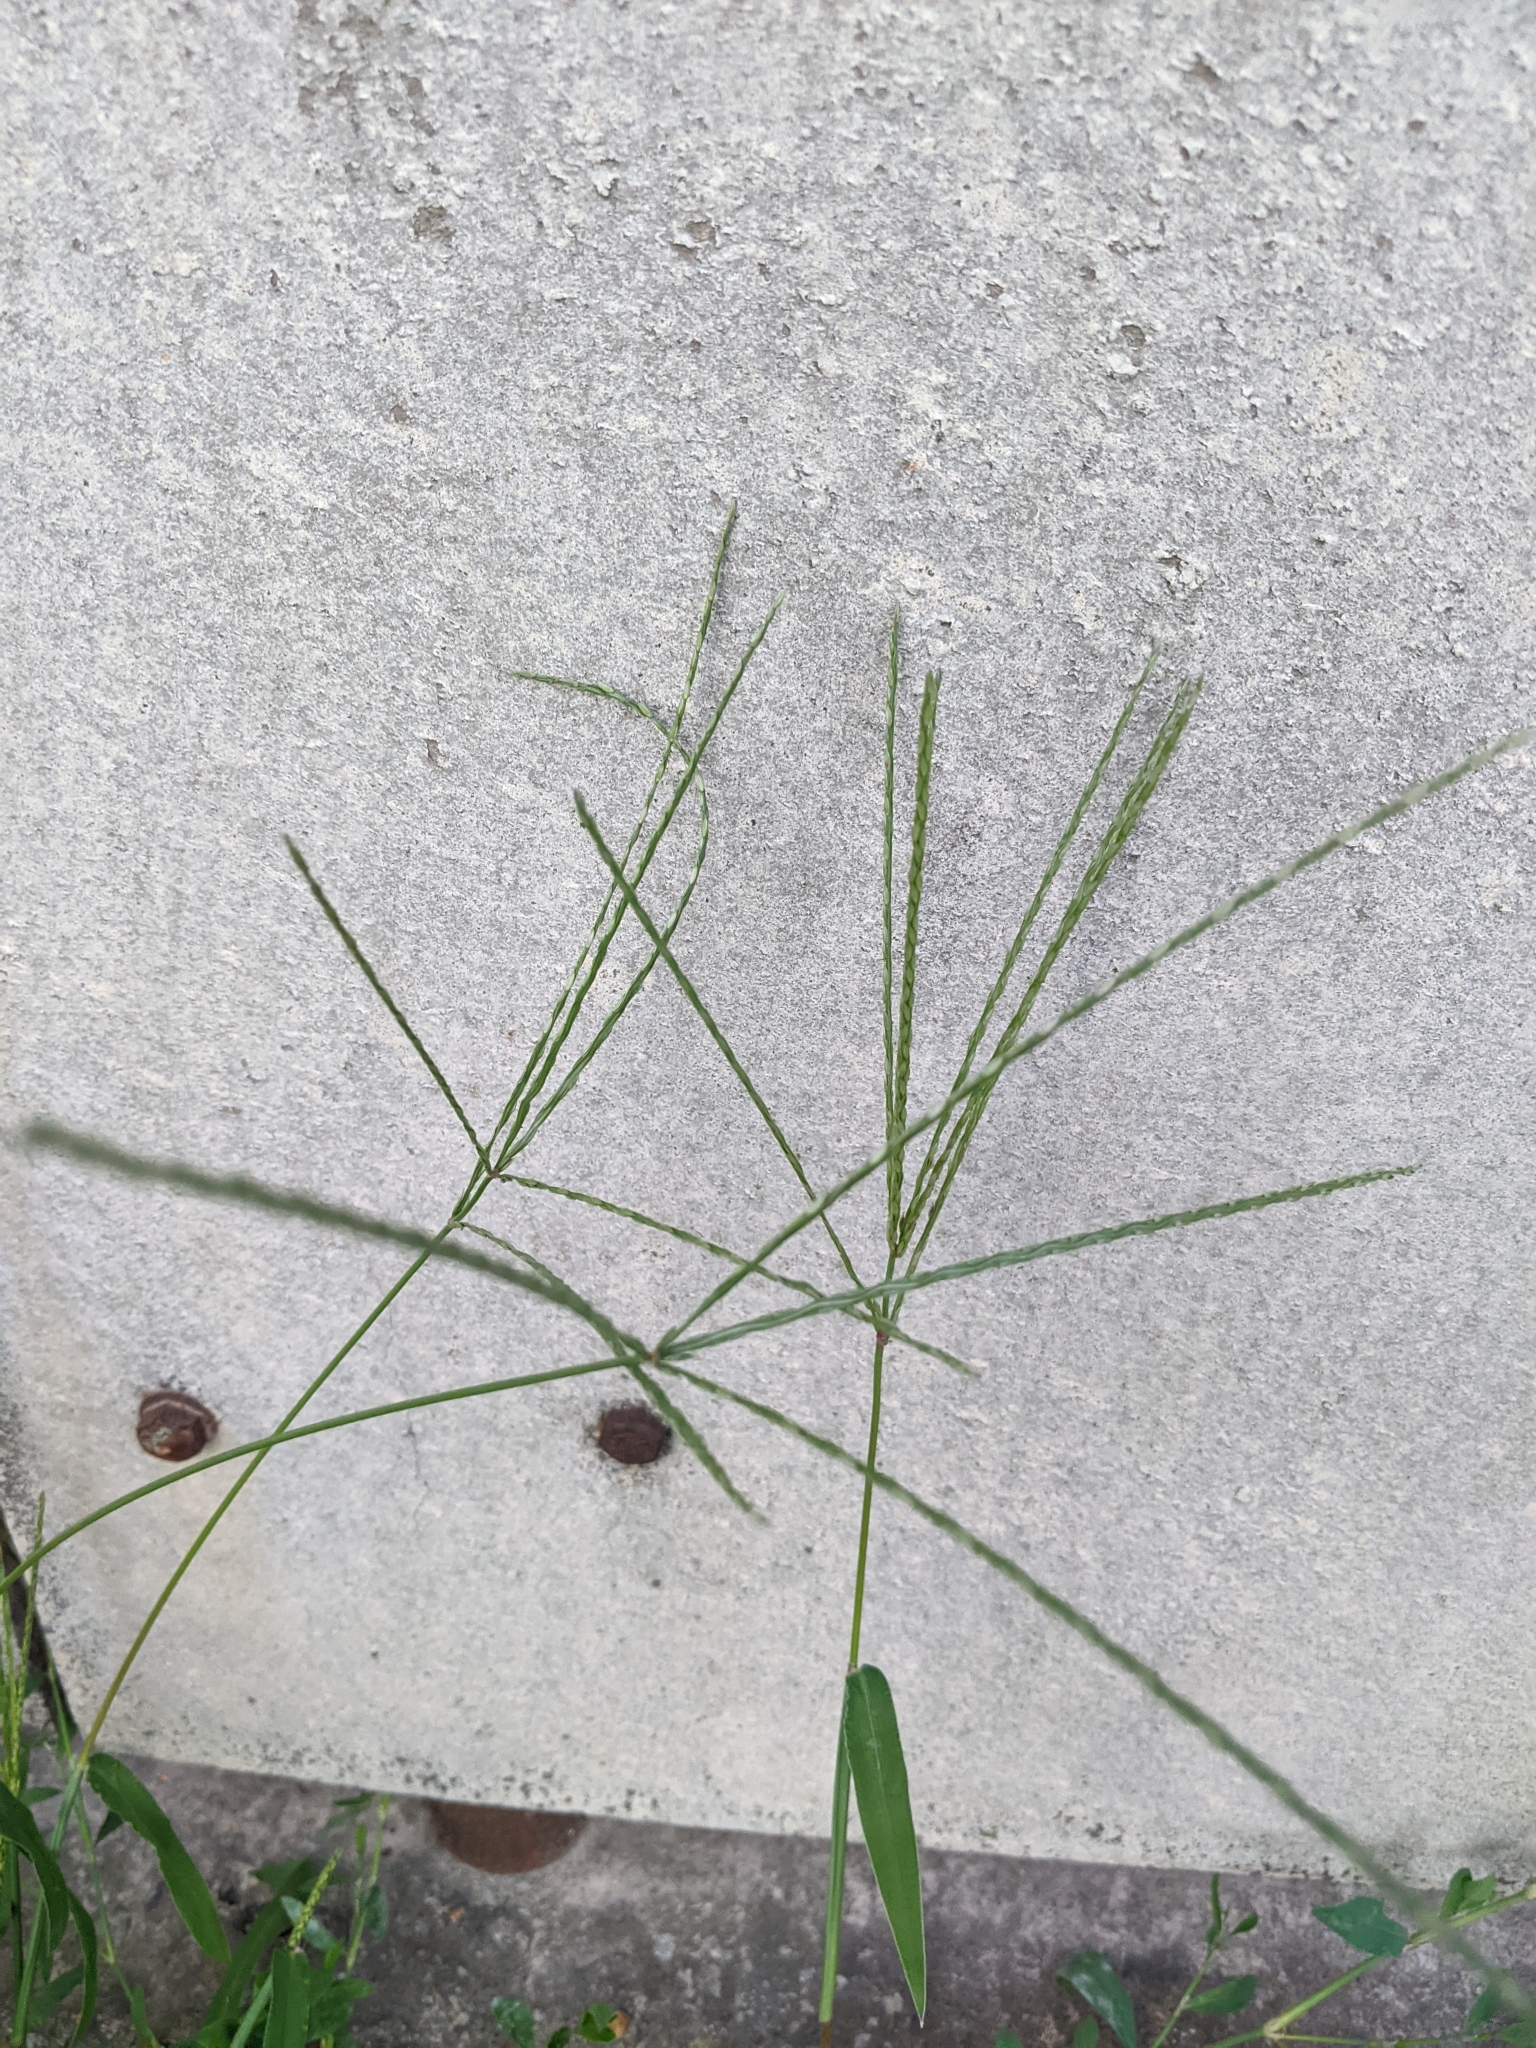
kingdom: Plantae
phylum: Tracheophyta
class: Liliopsida
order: Poales
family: Poaceae
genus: Digitaria
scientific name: Digitaria sanguinalis
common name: Hairy crabgrass
